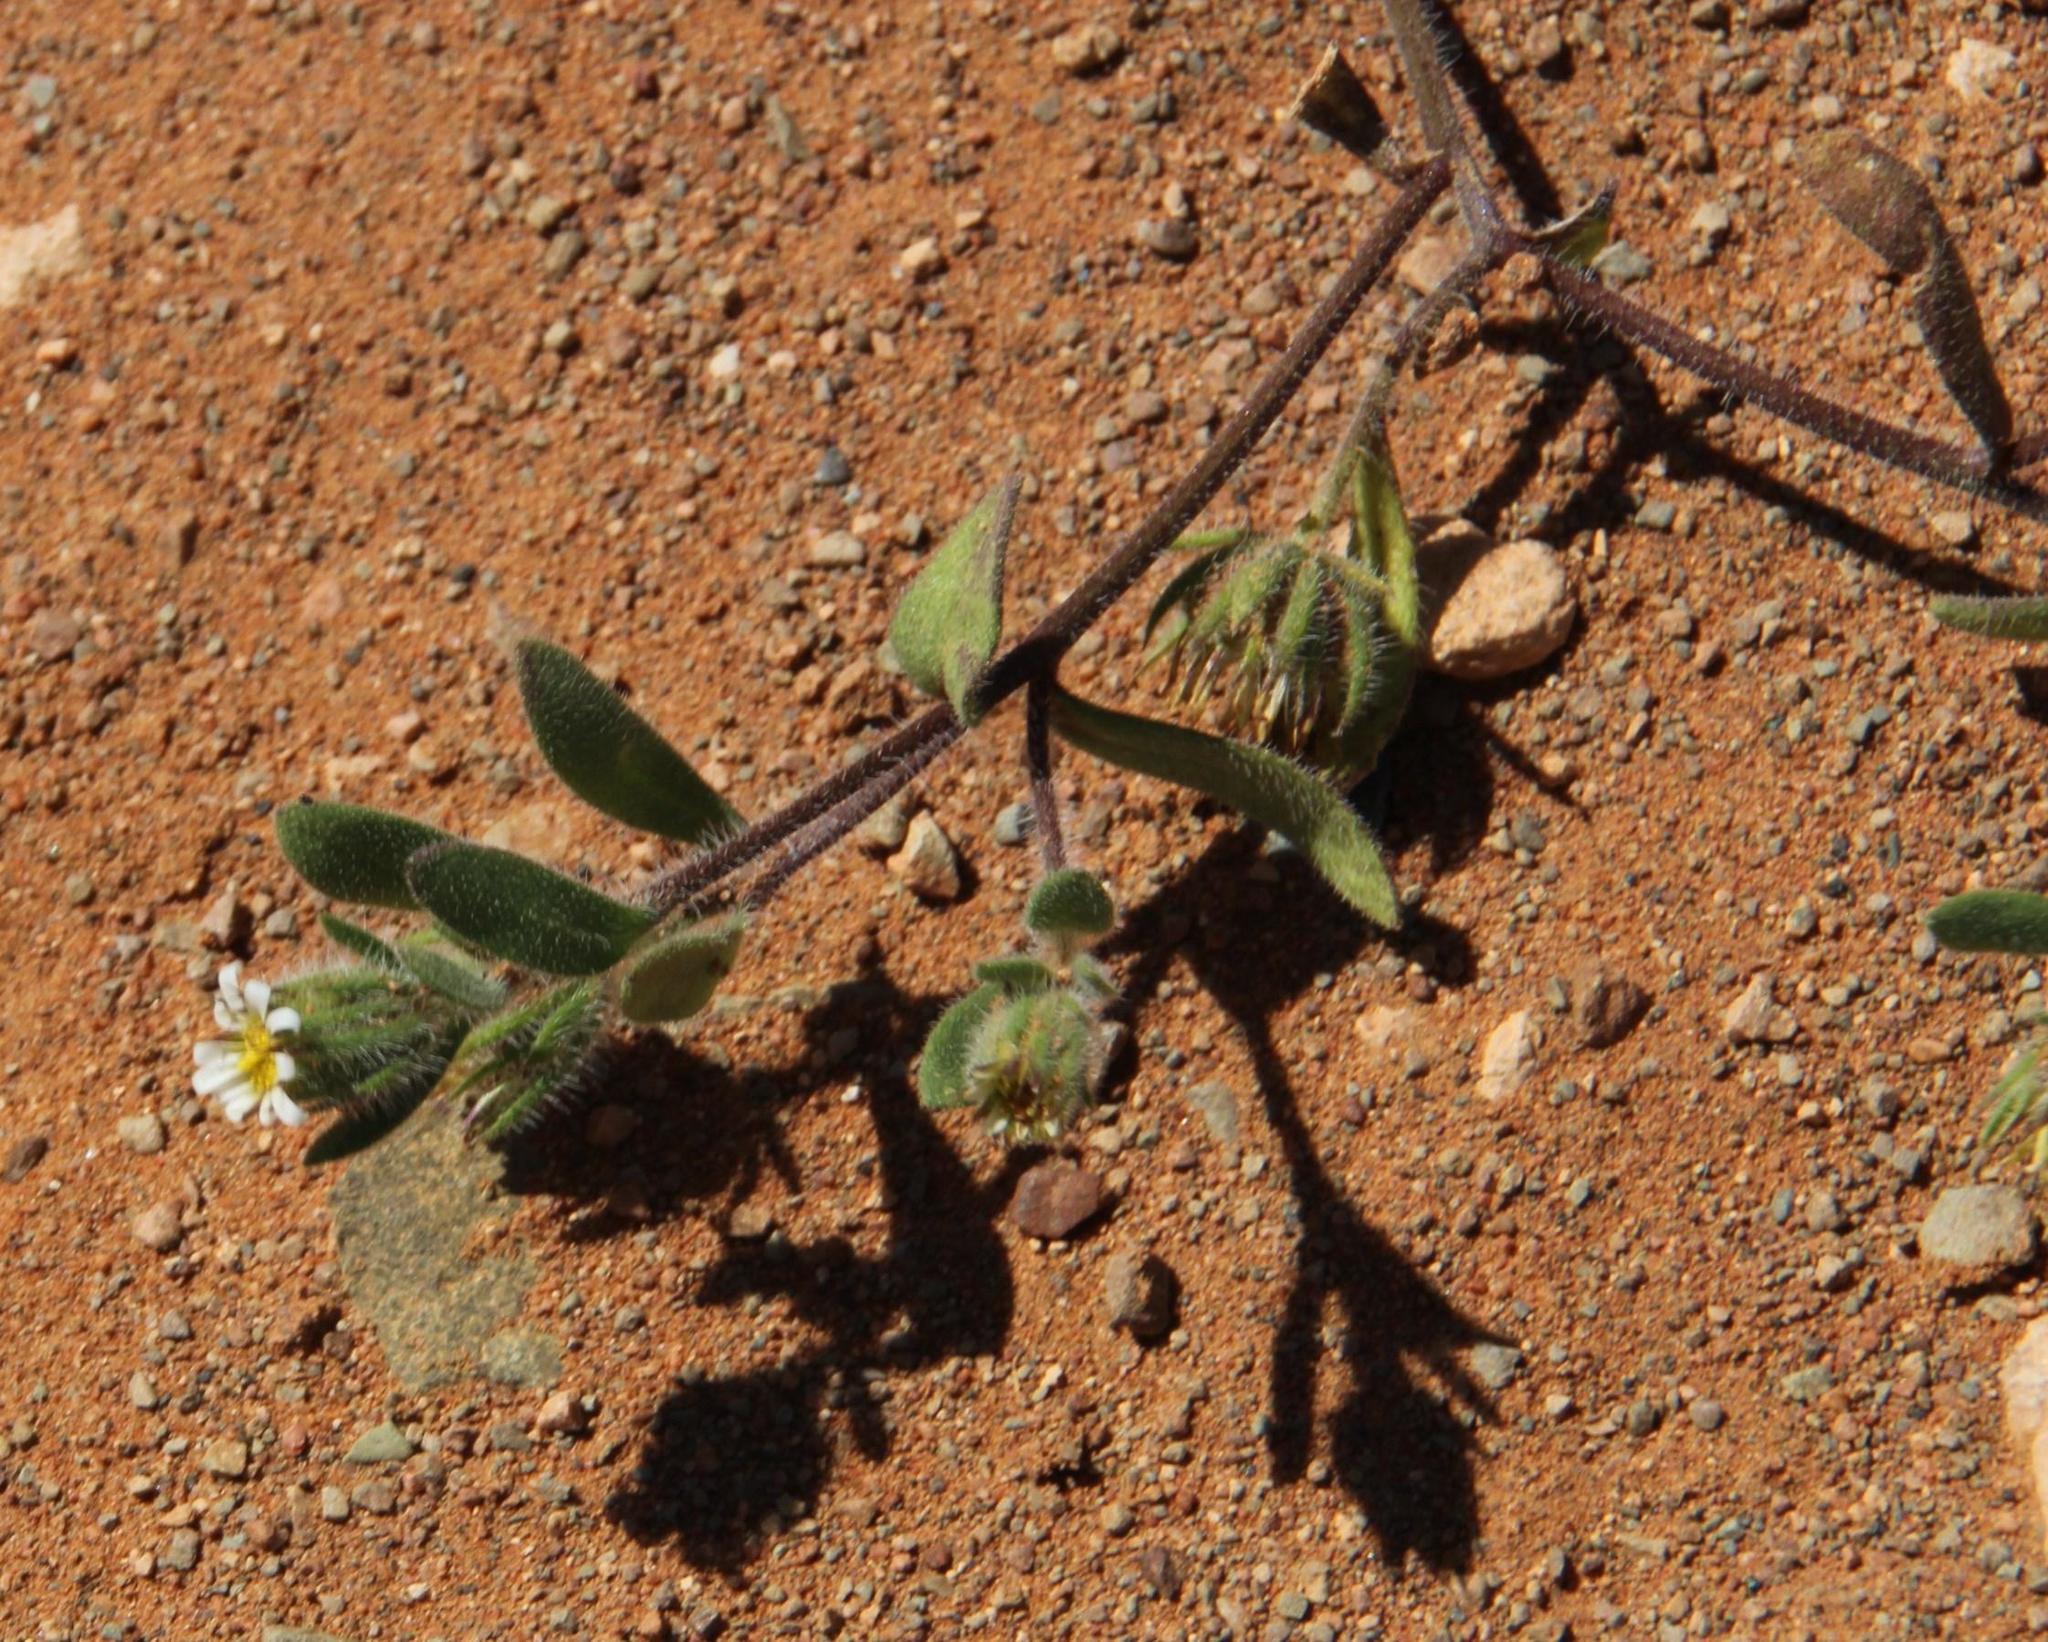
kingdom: Plantae
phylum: Tracheophyta
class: Magnoliopsida
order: Asterales
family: Asteraceae
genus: Amellus
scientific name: Amellus microglossus
